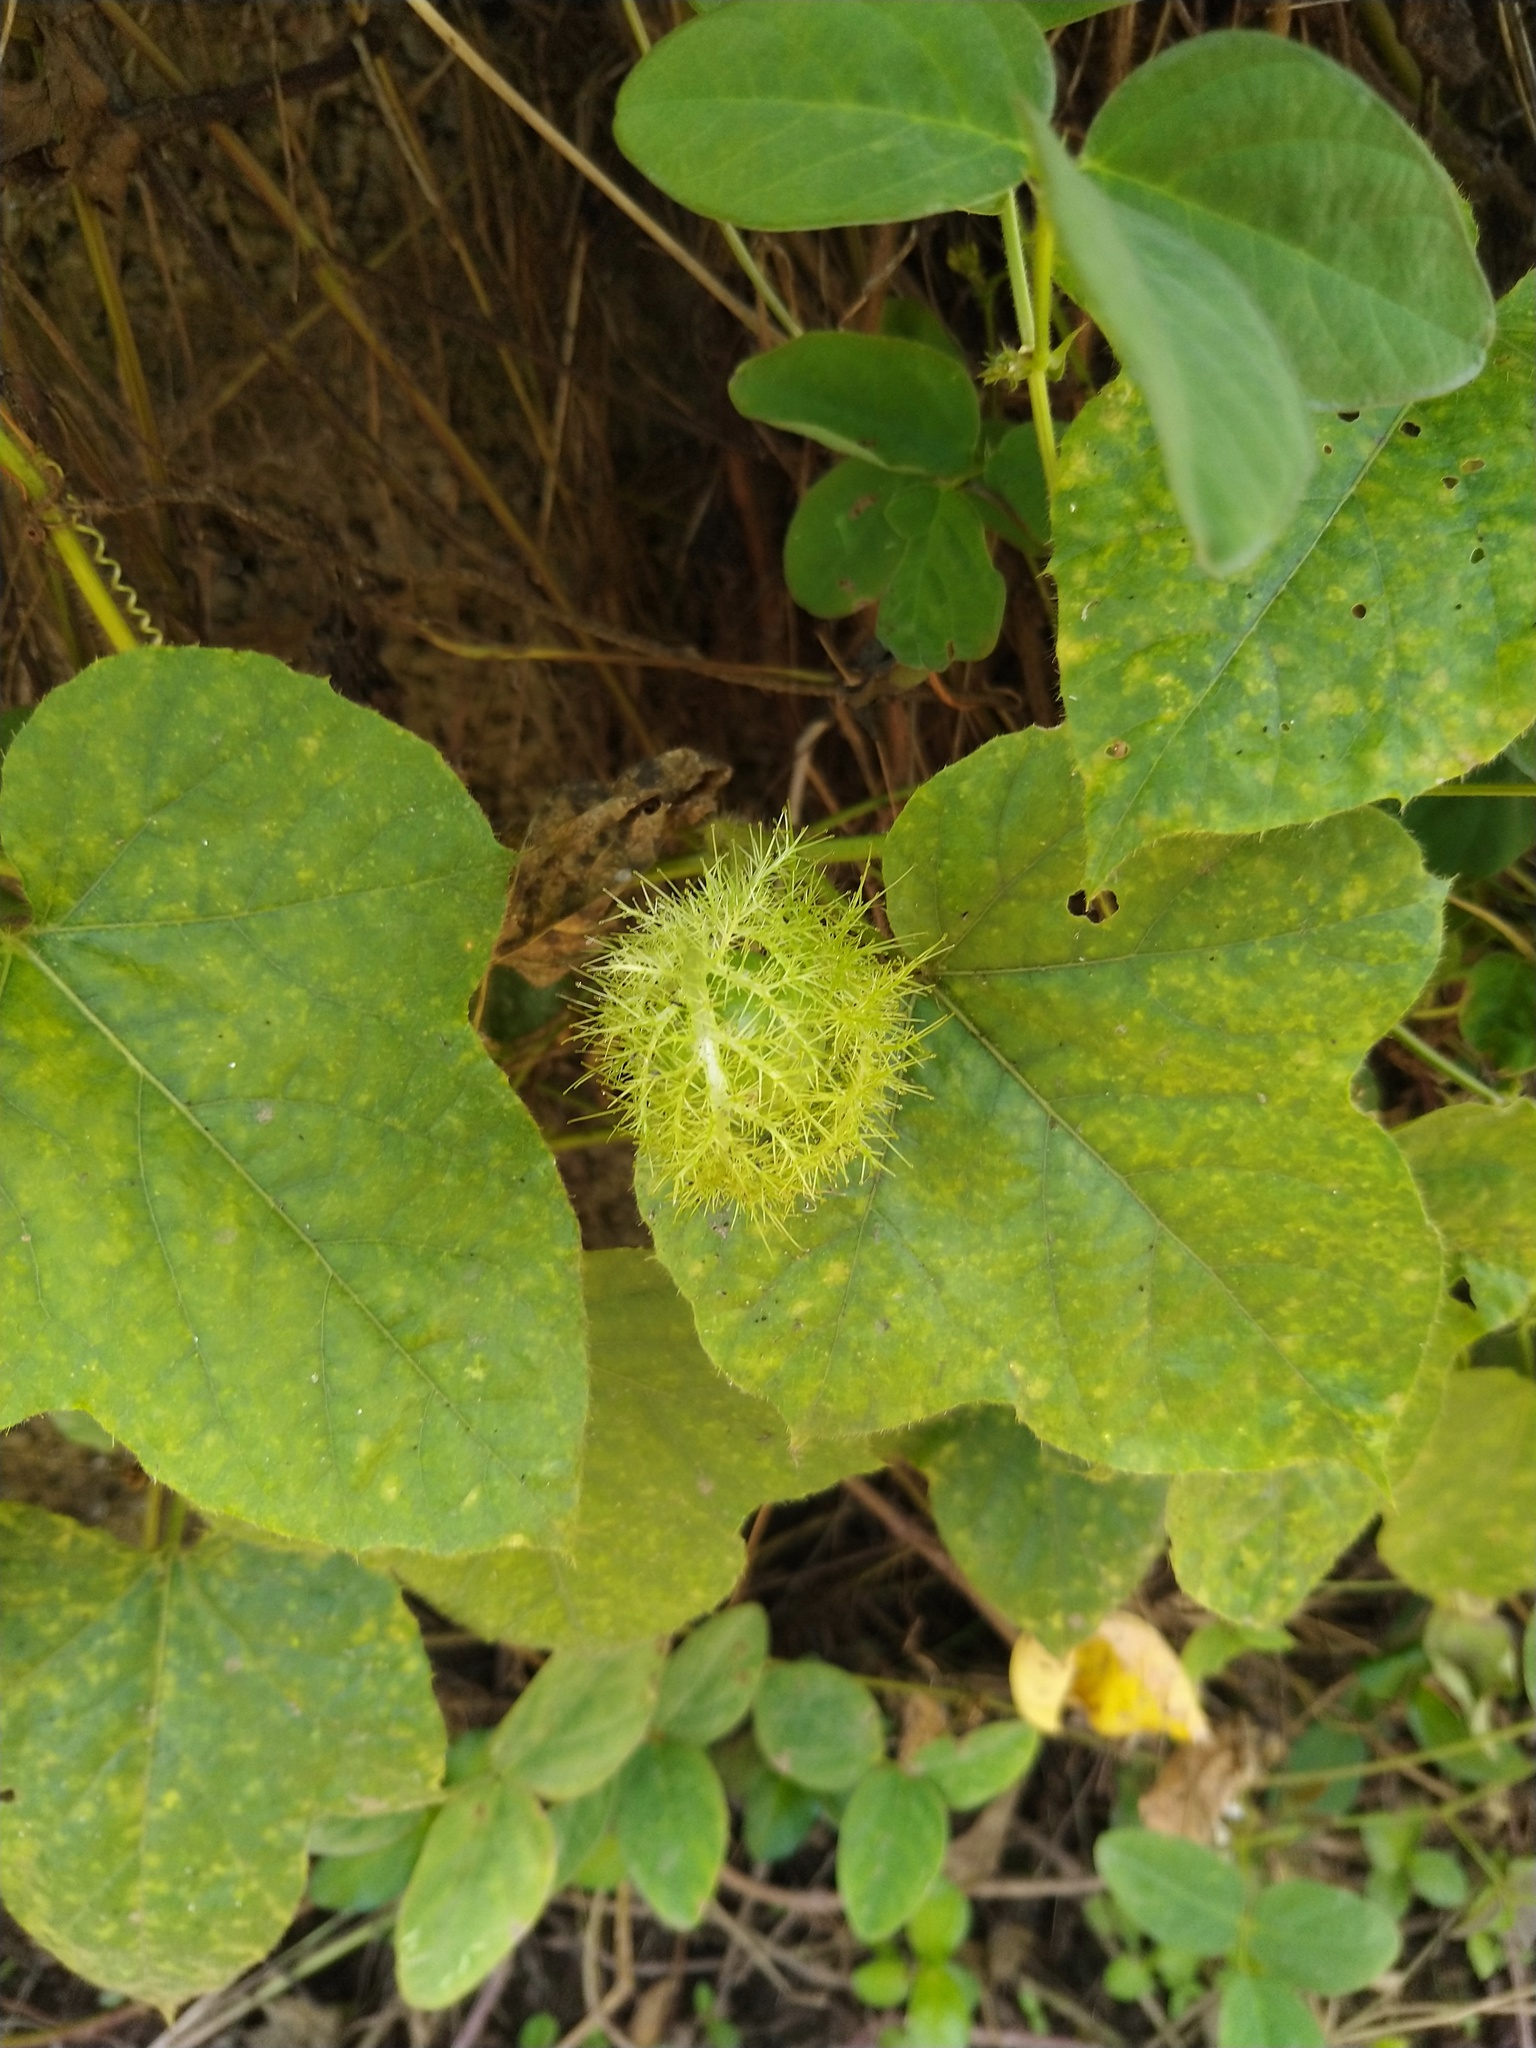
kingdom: Plantae
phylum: Tracheophyta
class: Magnoliopsida
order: Malpighiales
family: Passifloraceae
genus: Passiflora
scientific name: Passiflora foetida
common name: Fetid passionflower
